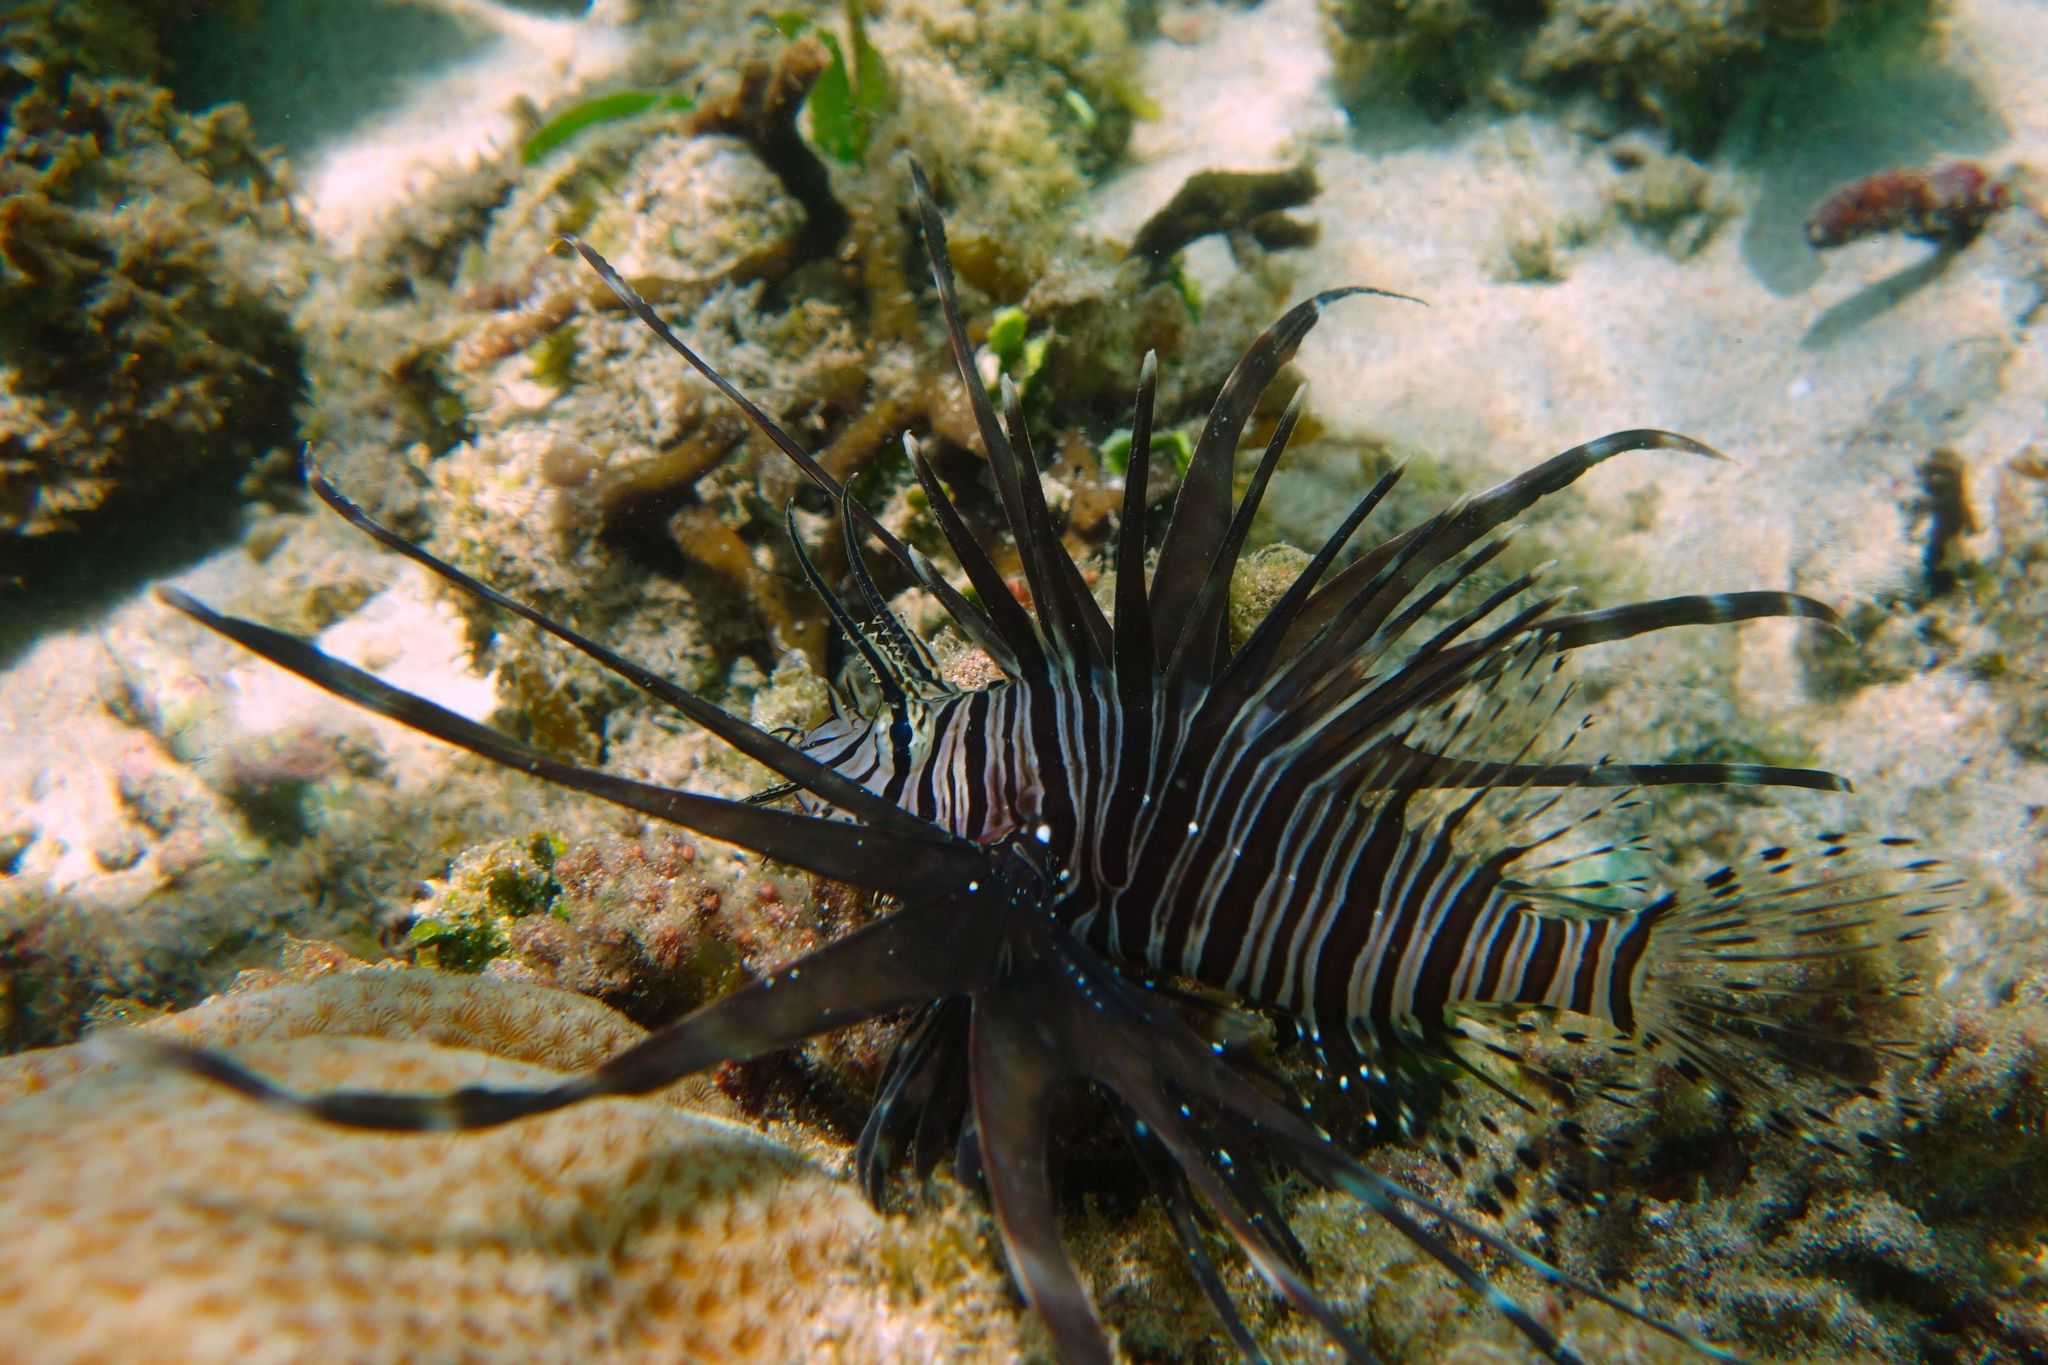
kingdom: Animalia
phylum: Chordata
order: Scorpaeniformes
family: Scorpaenidae
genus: Pterois
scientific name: Pterois volitans
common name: Lionfish
